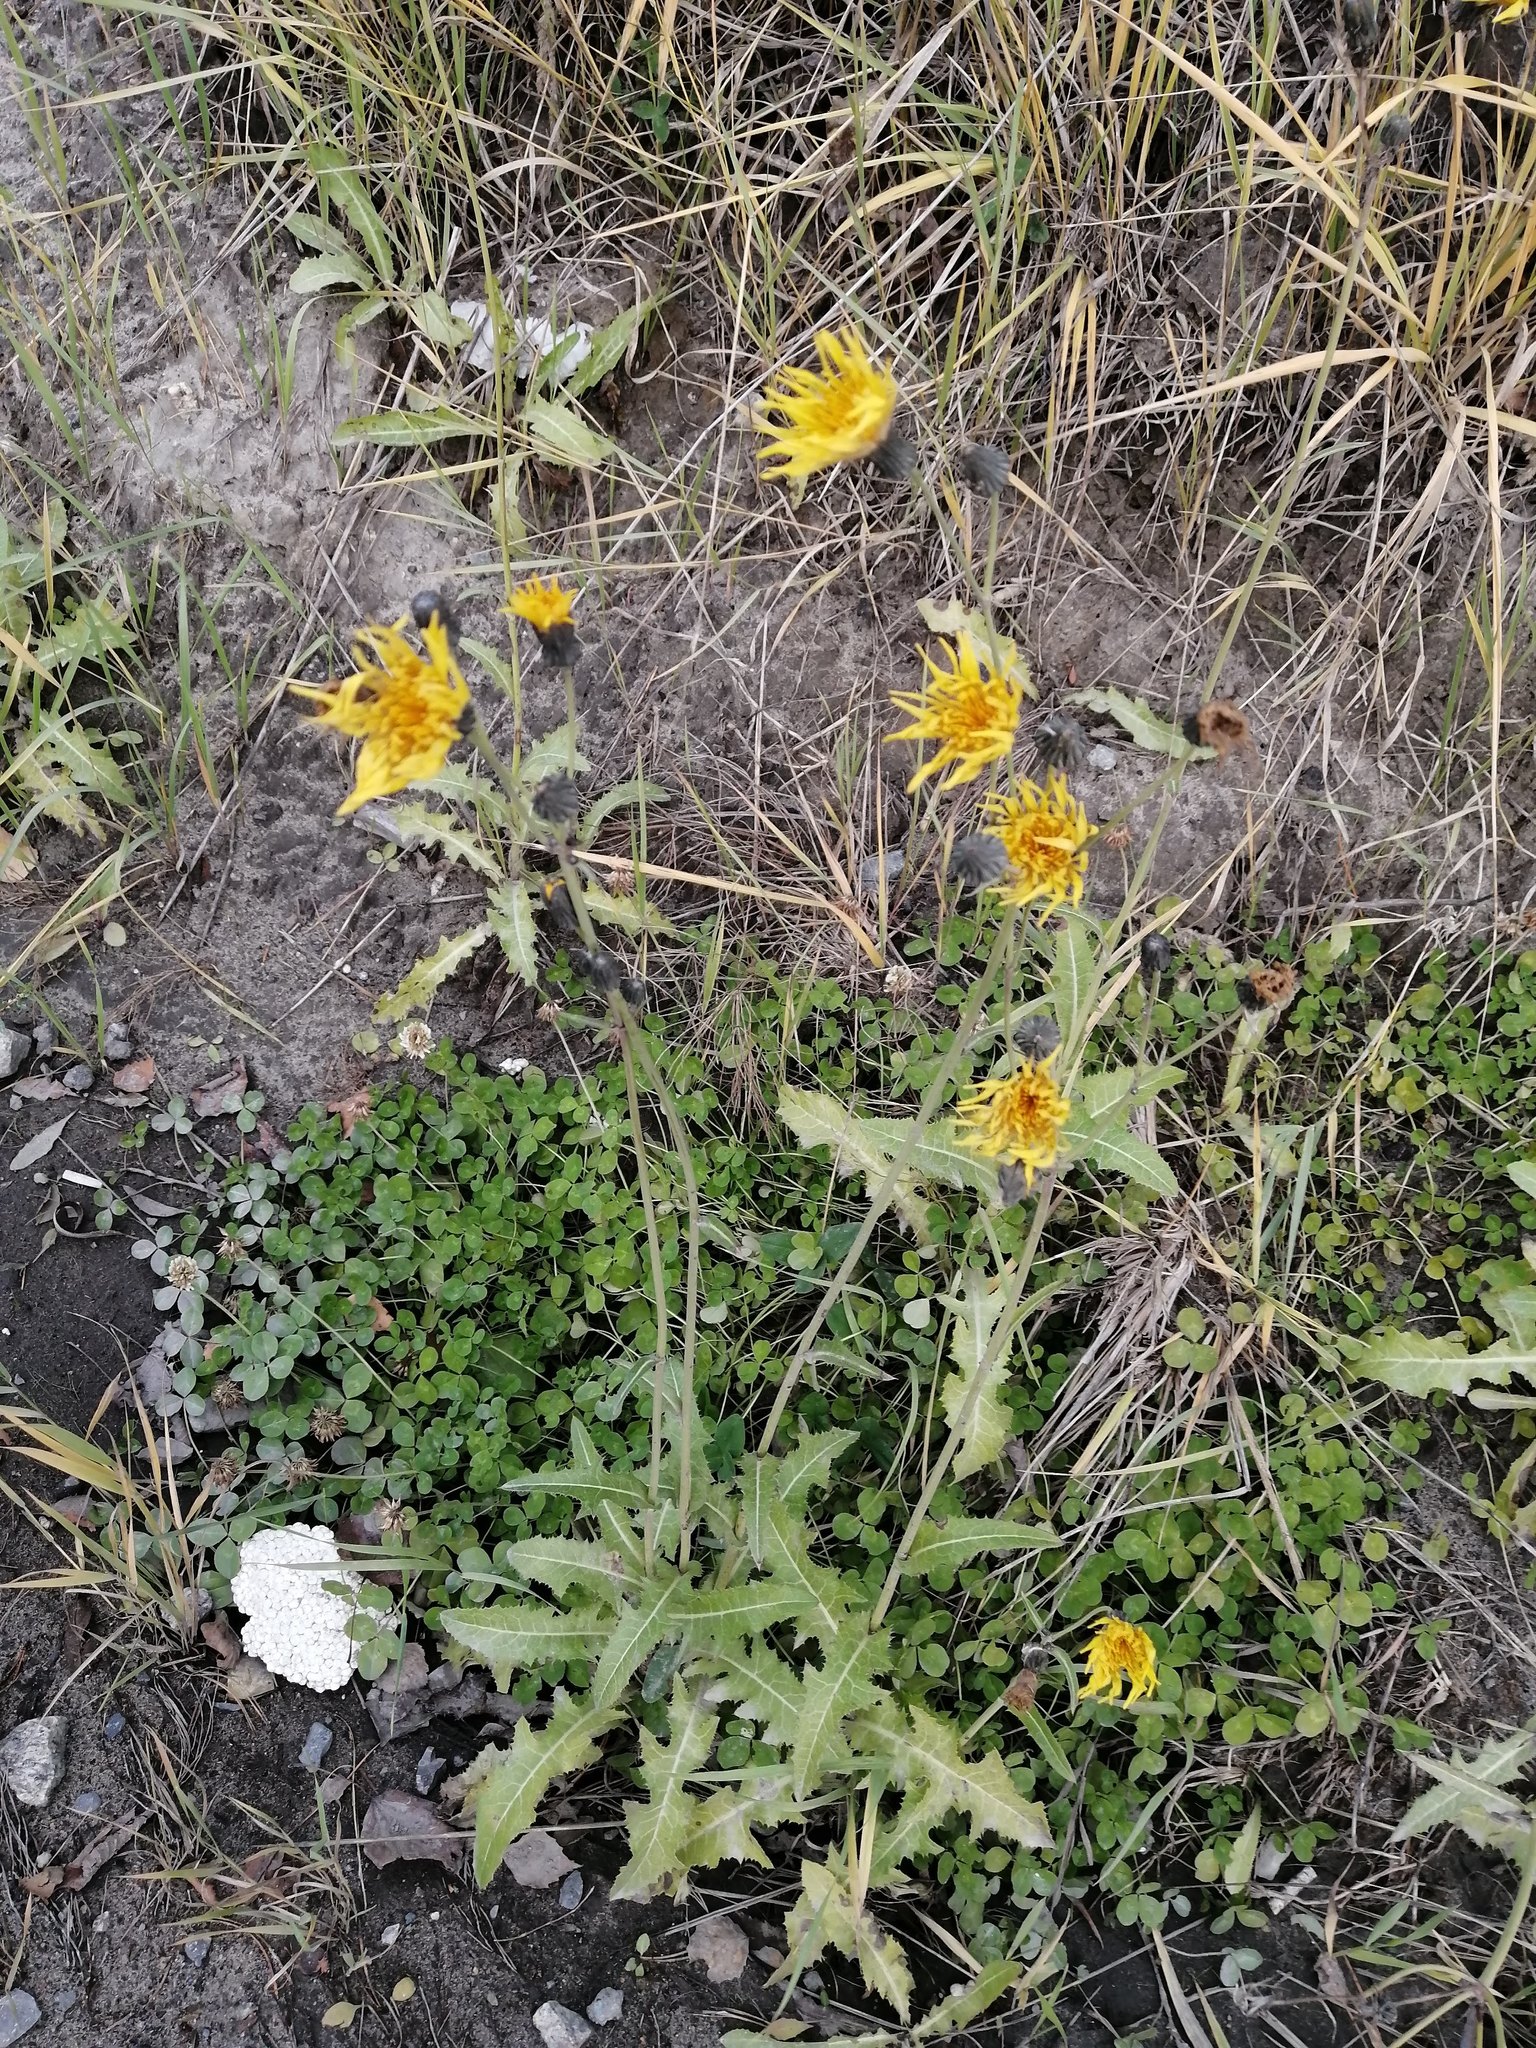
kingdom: Plantae
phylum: Tracheophyta
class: Magnoliopsida
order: Asterales
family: Asteraceae
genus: Sonchus
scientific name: Sonchus arvensis
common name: Perennial sow-thistle
